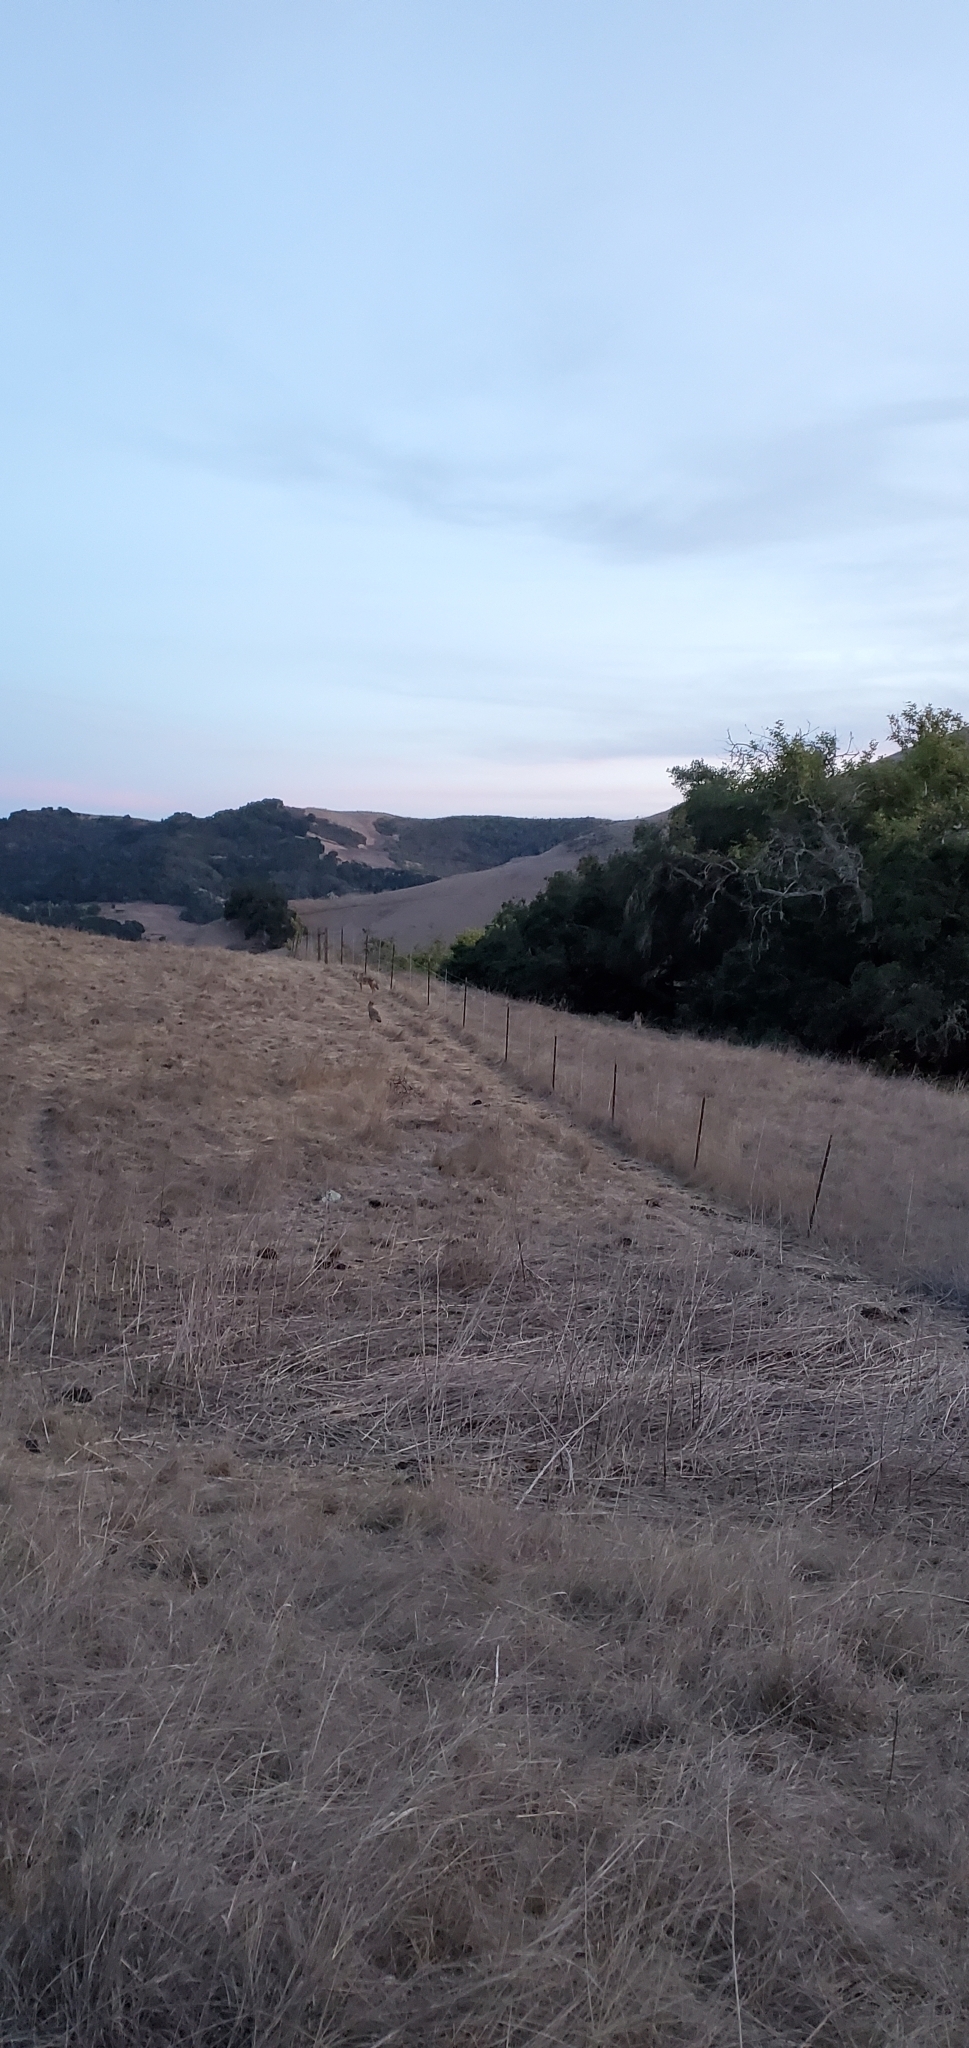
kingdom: Animalia
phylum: Chordata
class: Mammalia
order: Carnivora
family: Canidae
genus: Canis
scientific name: Canis latrans
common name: Coyote
